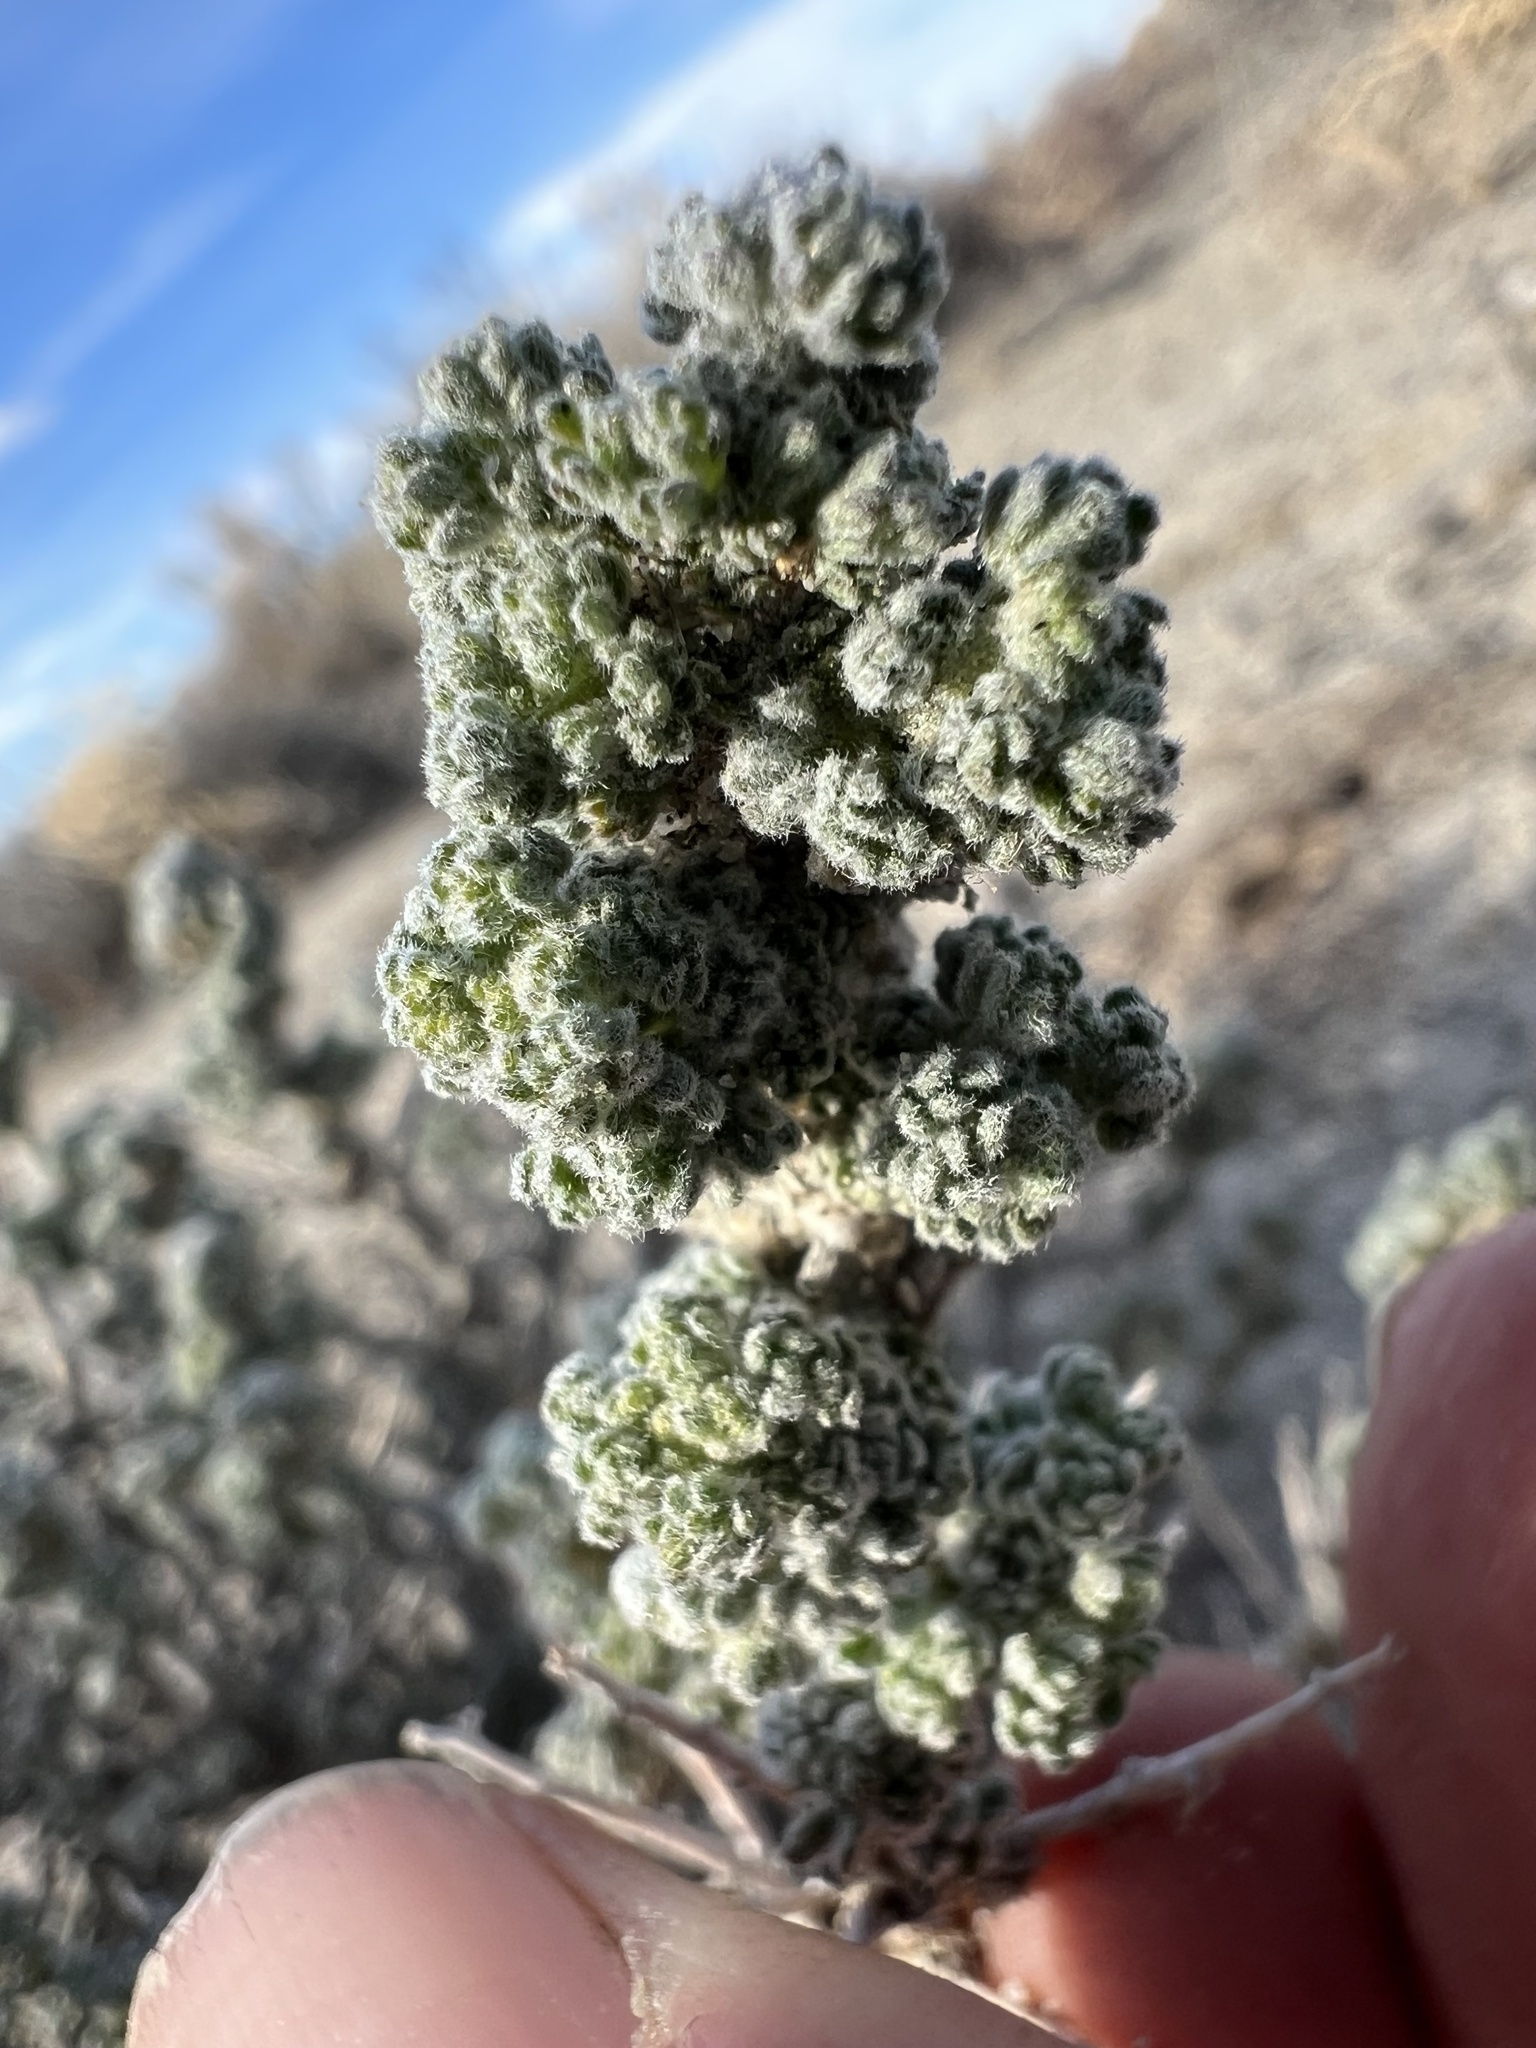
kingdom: Plantae
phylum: Tracheophyta
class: Magnoliopsida
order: Asterales
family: Asteraceae
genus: Artemisia
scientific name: Artemisia spinescens
